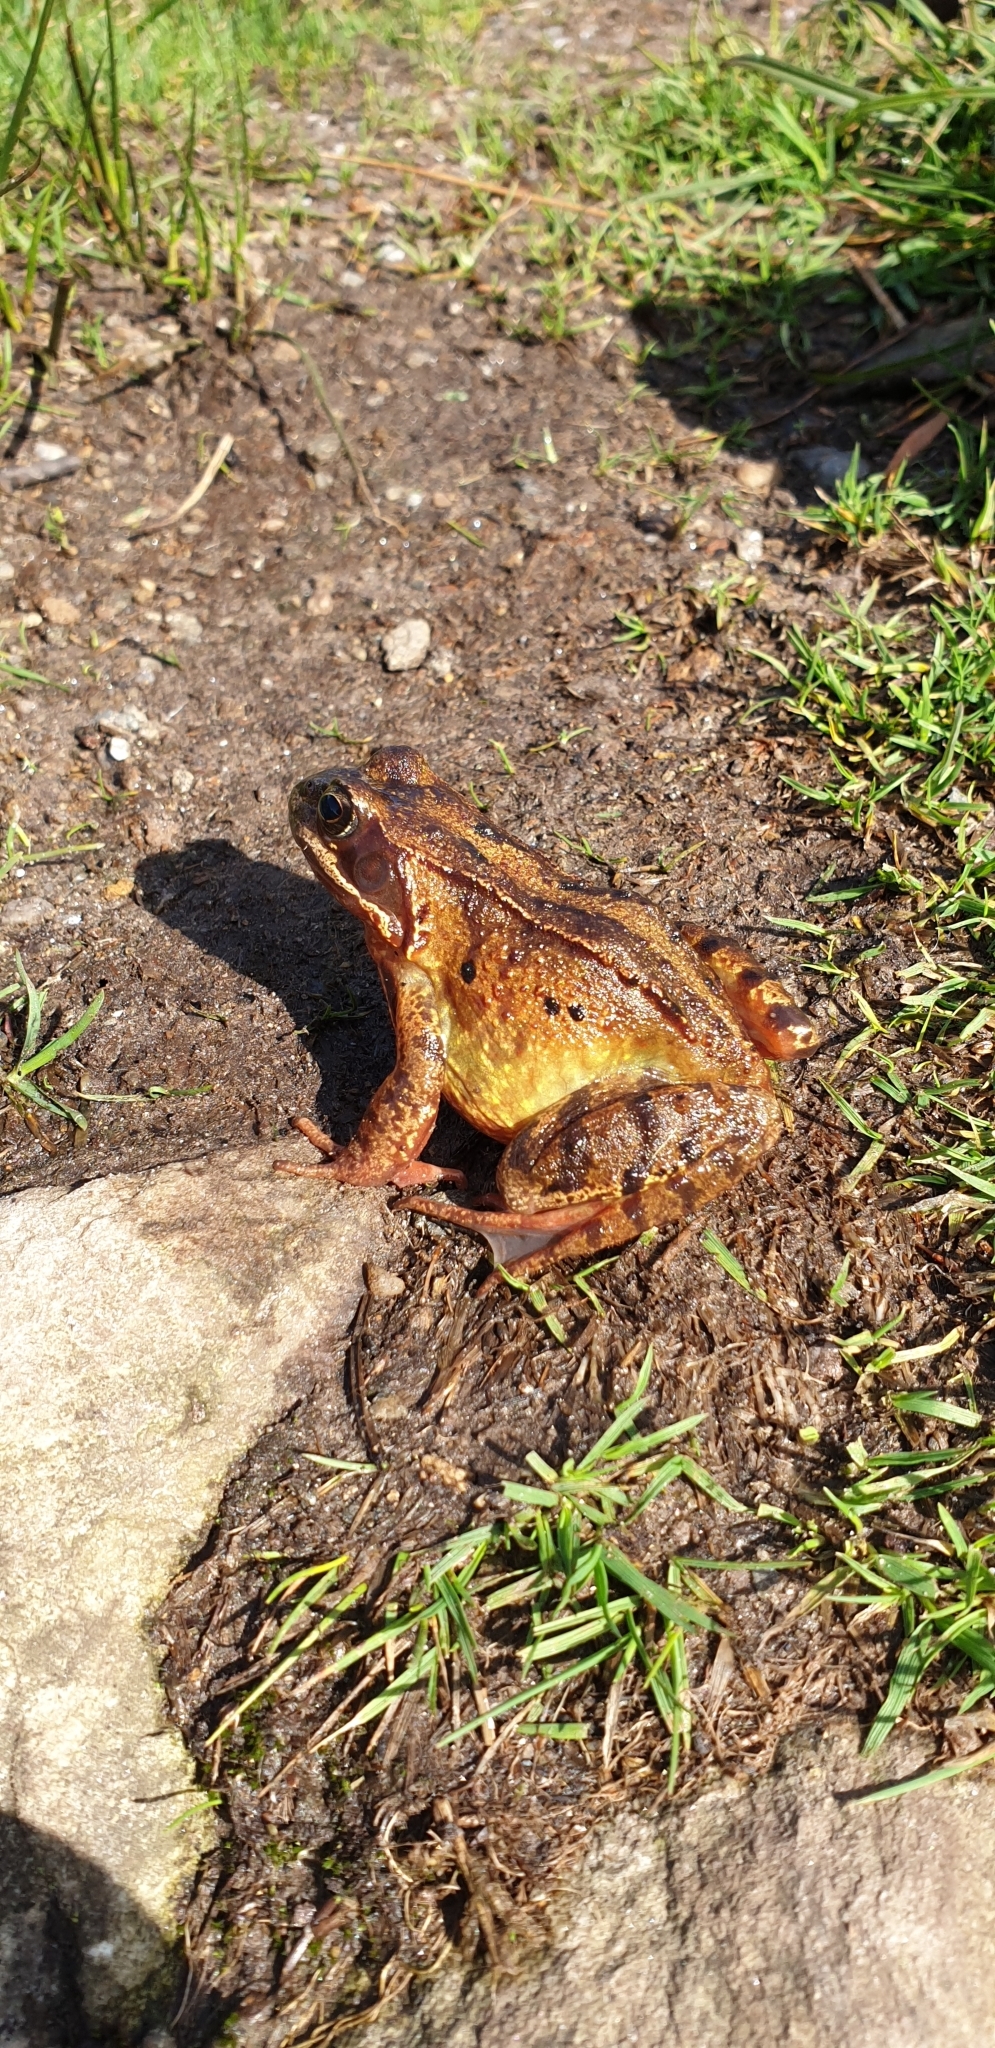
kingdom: Animalia
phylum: Chordata
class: Amphibia
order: Anura
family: Ranidae
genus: Rana
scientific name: Rana temporaria
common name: Common frog
